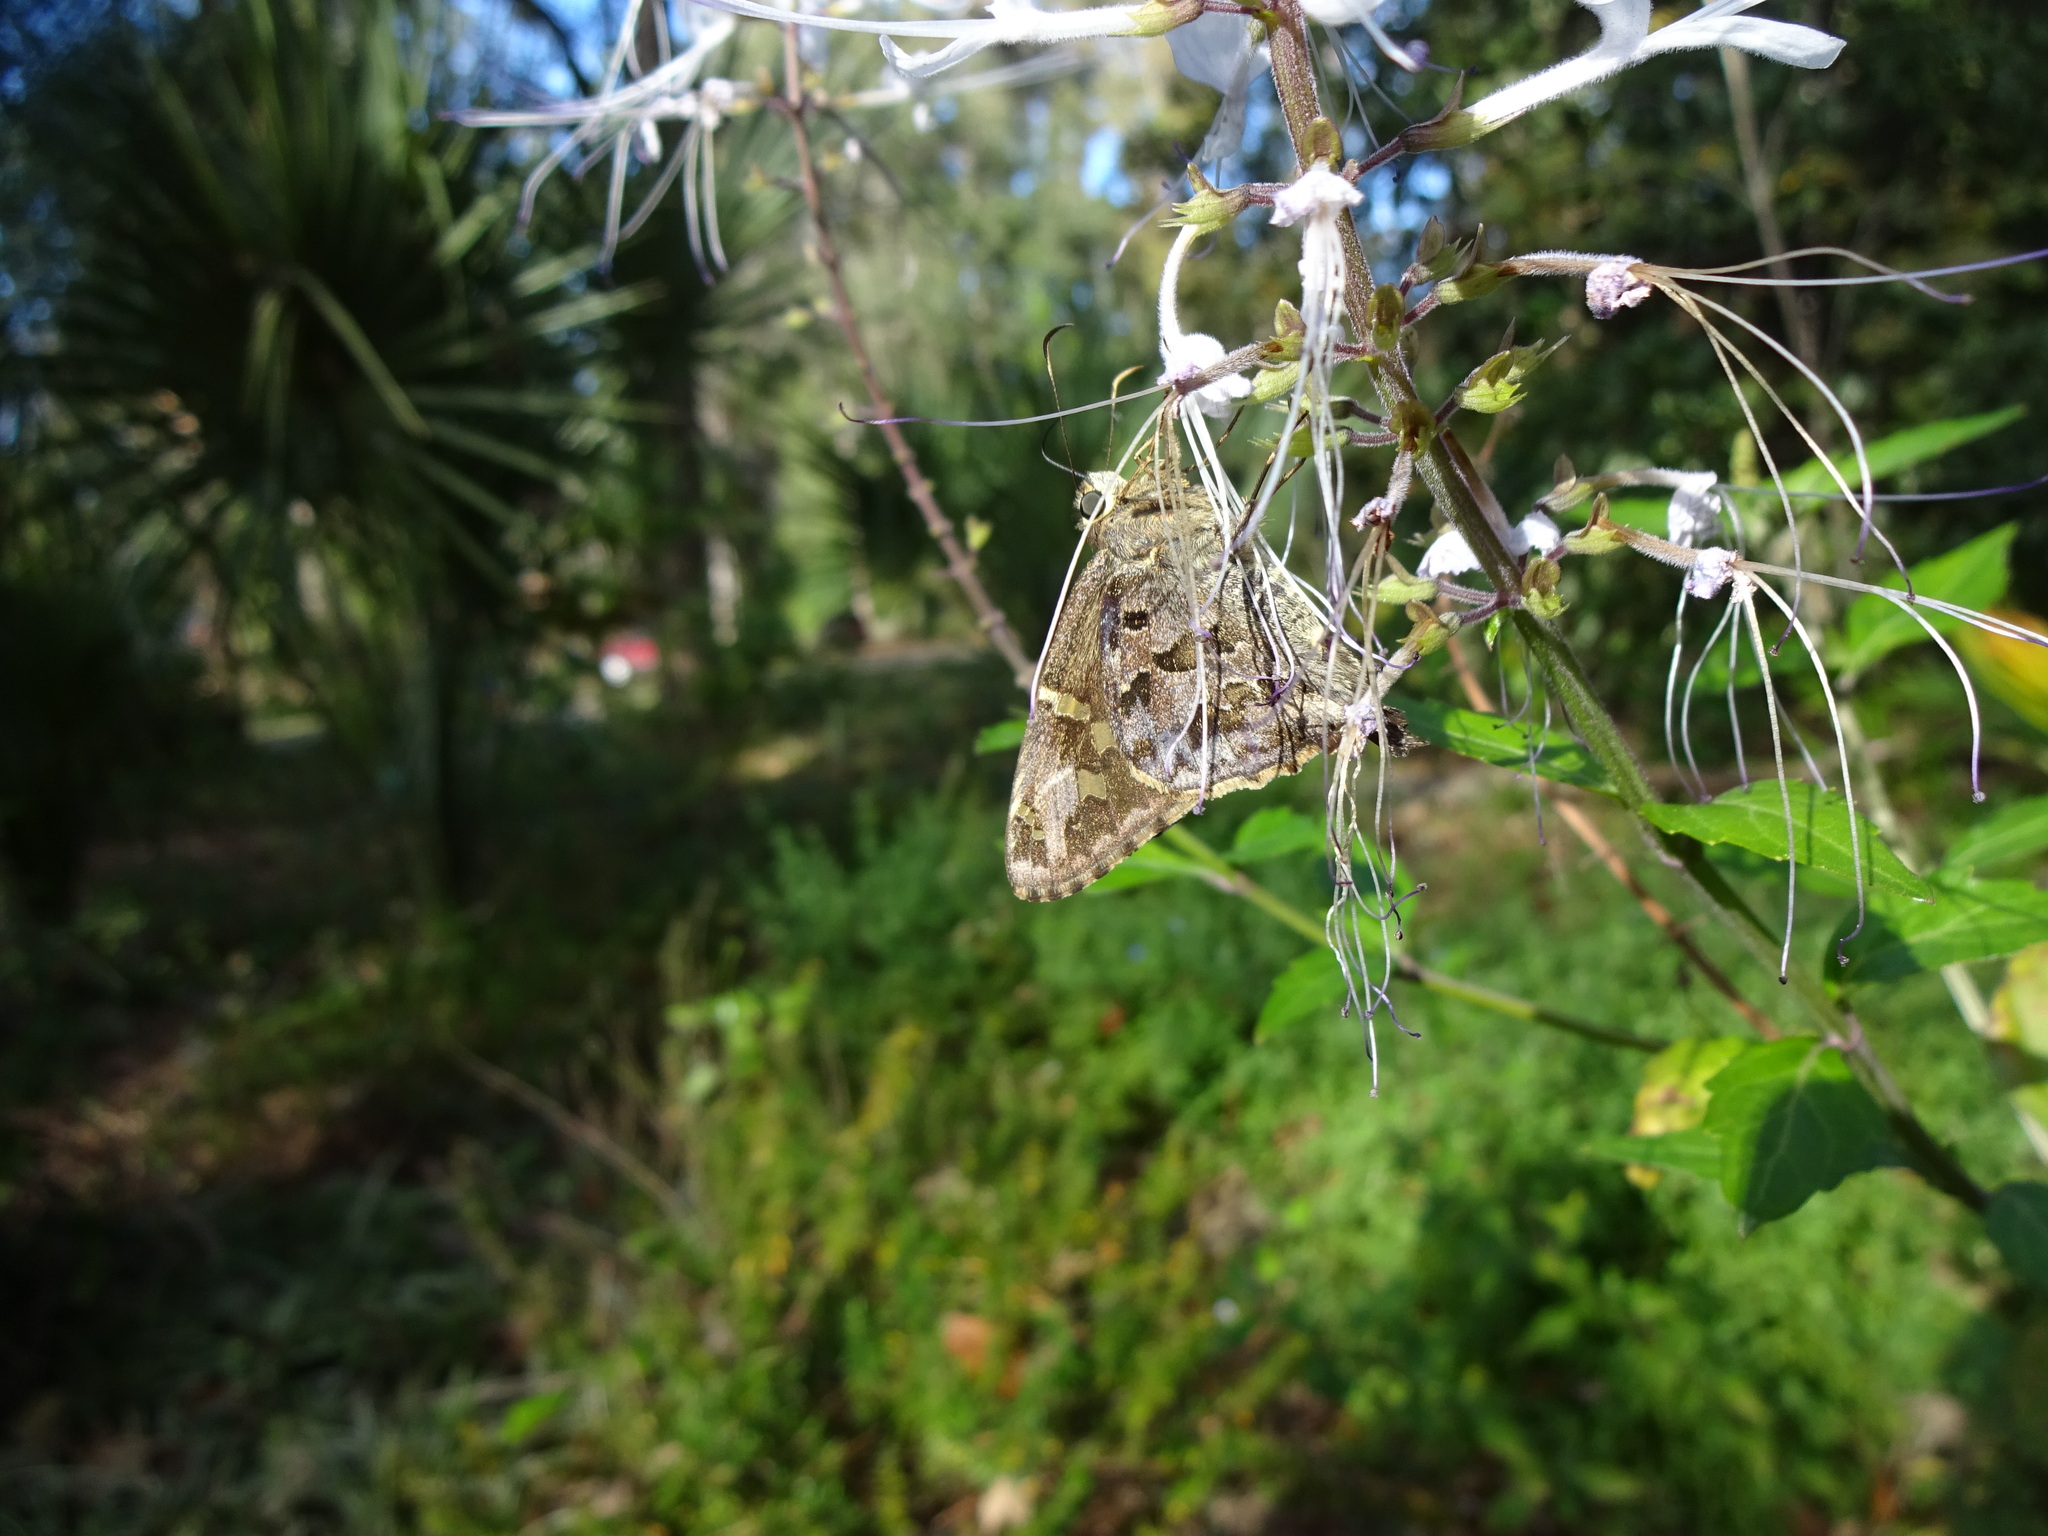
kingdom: Animalia
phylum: Arthropoda
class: Insecta
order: Lepidoptera
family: Hesperiidae
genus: Thorybes
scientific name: Thorybes
